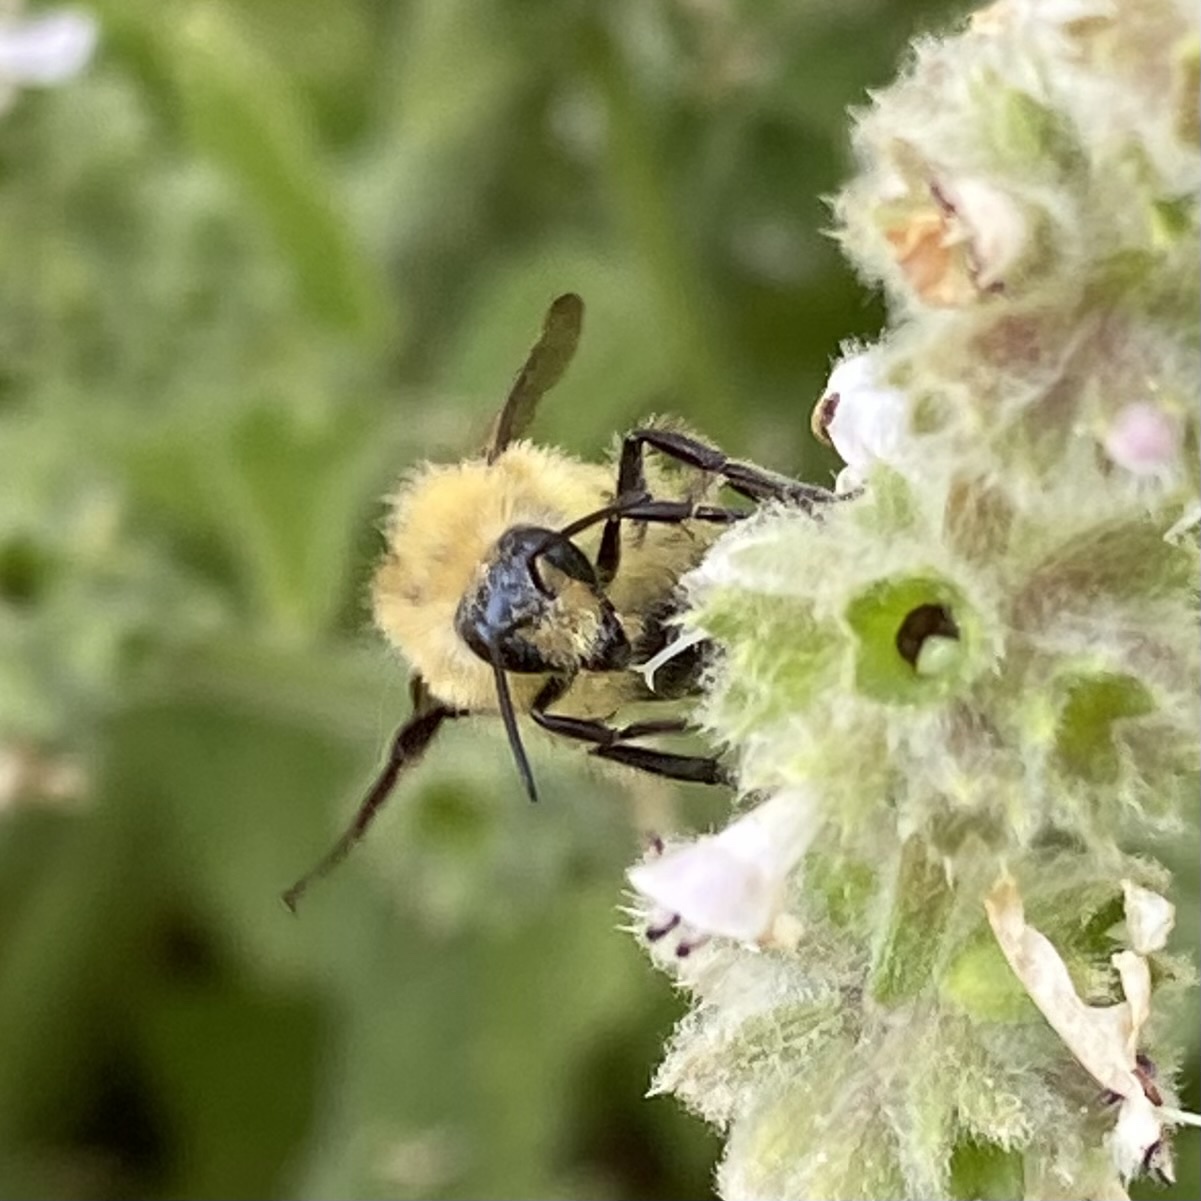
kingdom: Animalia
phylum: Arthropoda
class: Insecta
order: Hymenoptera
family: Apidae
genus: Pyrobombus
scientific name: Pyrobombus
